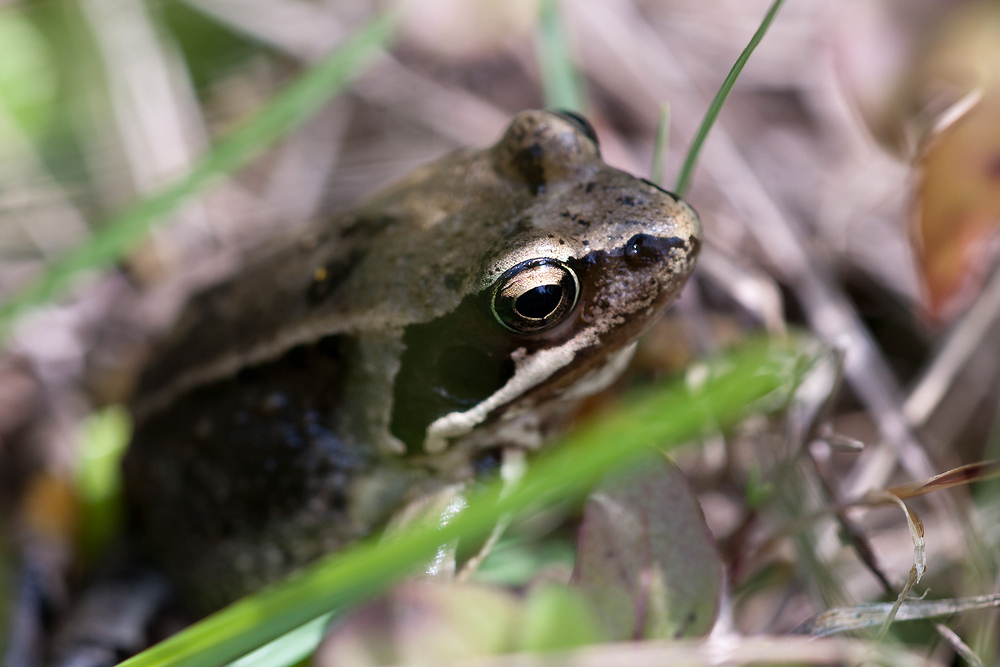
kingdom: Animalia
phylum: Chordata
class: Amphibia
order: Anura
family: Ranidae
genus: Rana
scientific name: Rana temporaria
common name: Common frog
